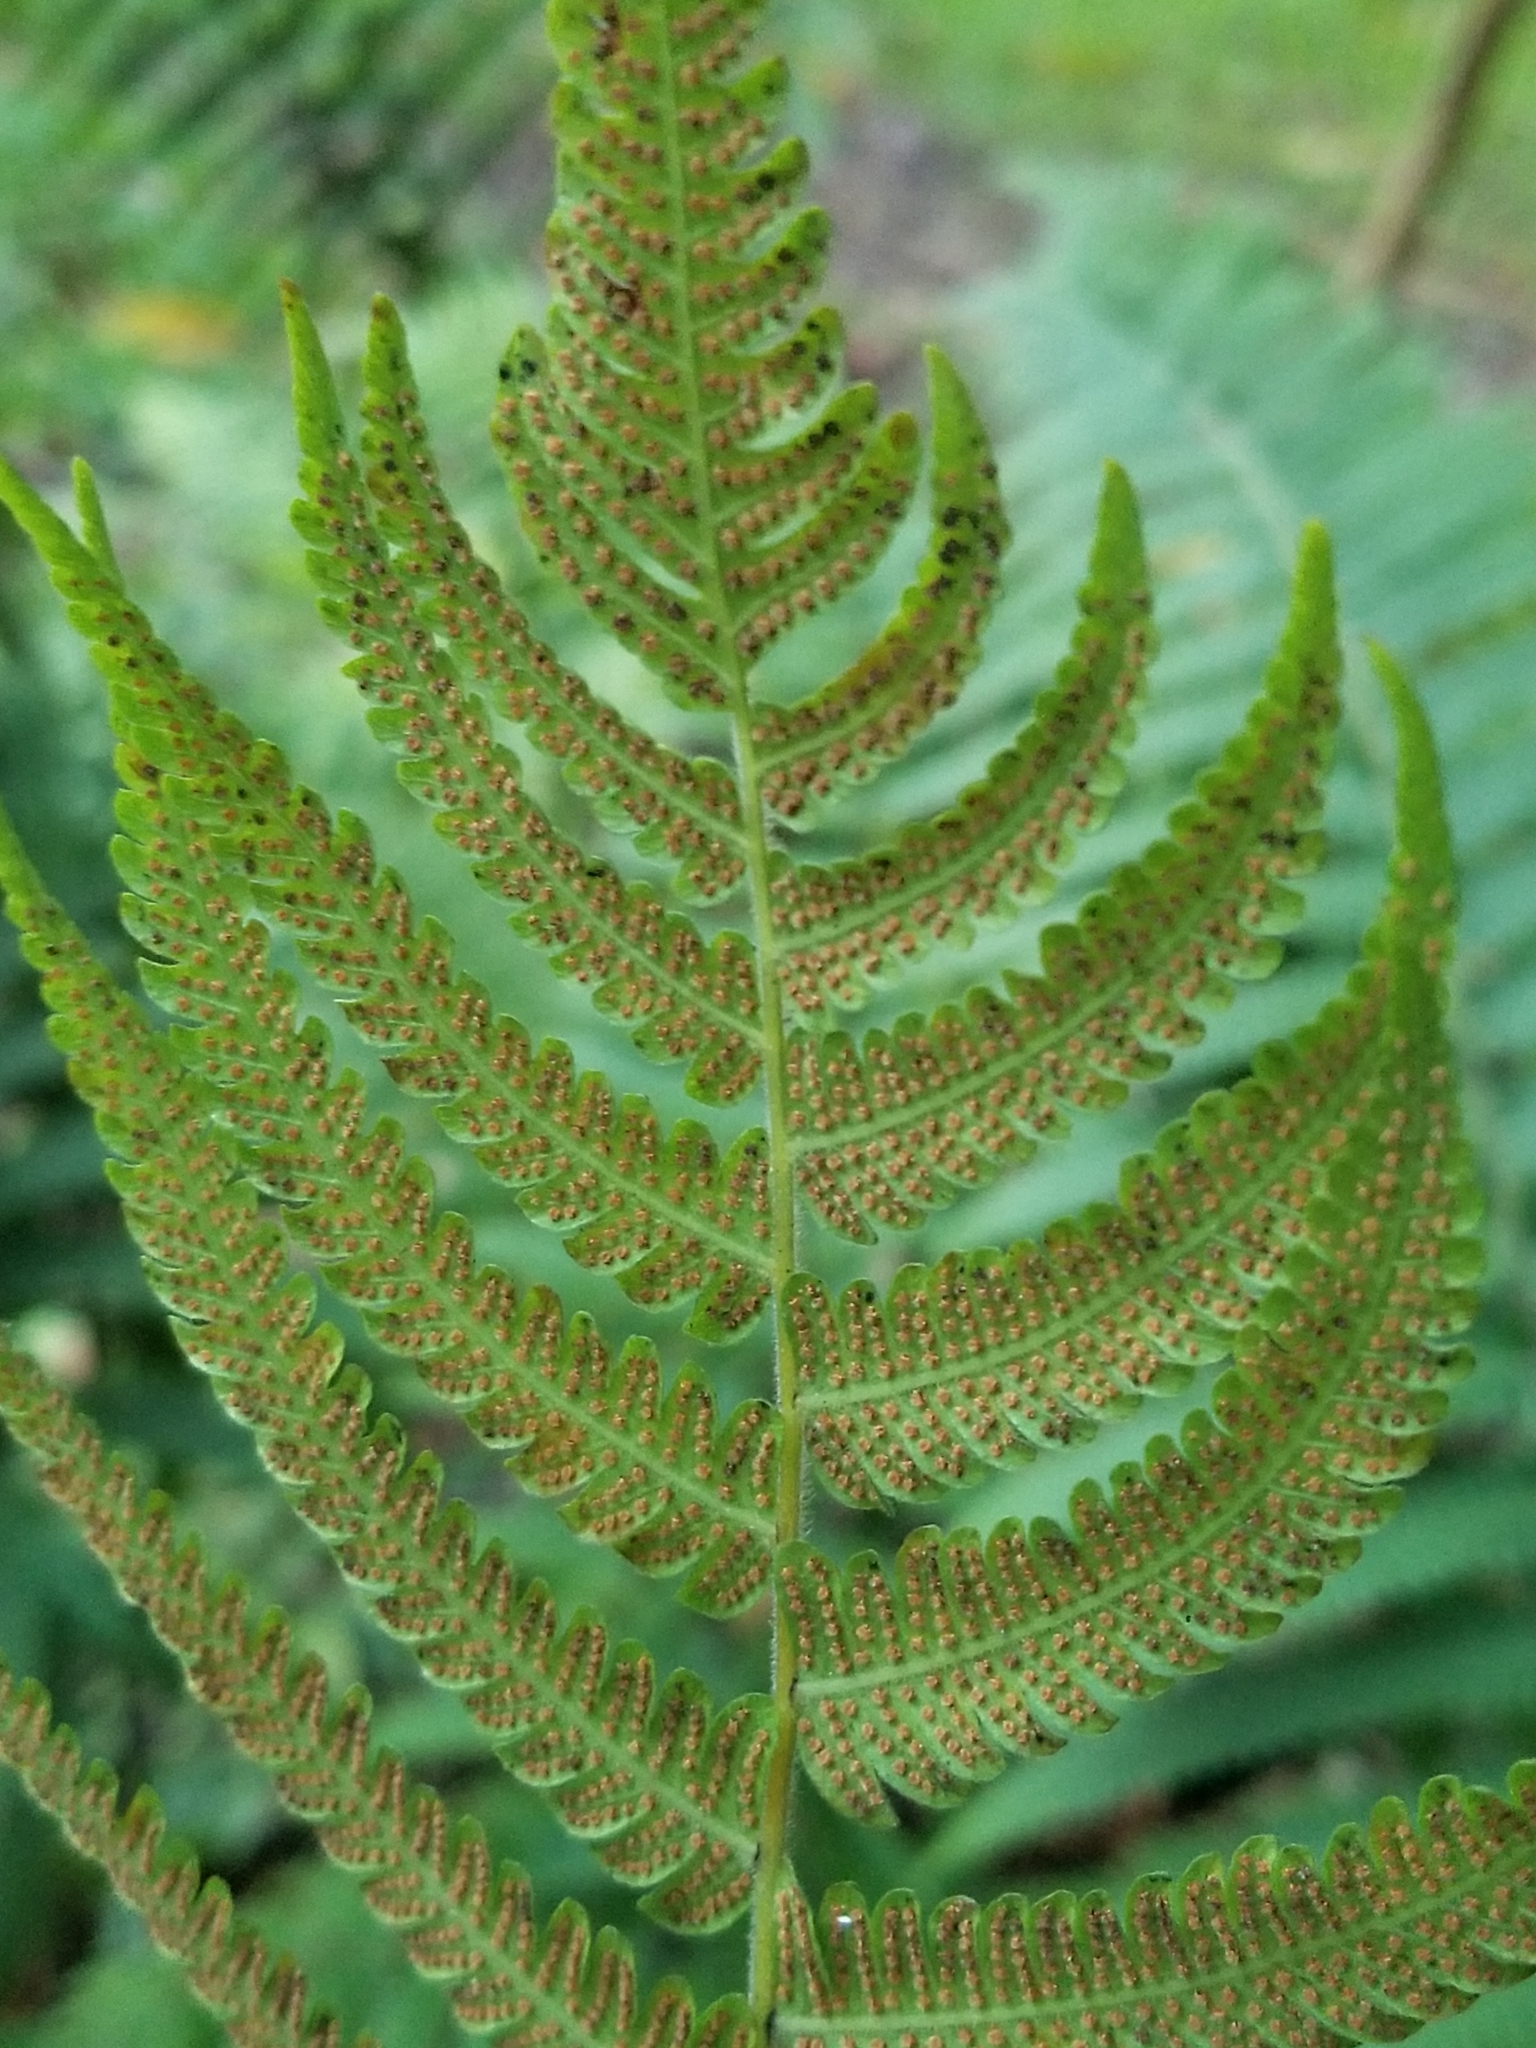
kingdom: Plantae
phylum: Tracheophyta
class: Polypodiopsida
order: Polypodiales
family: Thelypteridaceae
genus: Christella
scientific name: Christella parasitica
